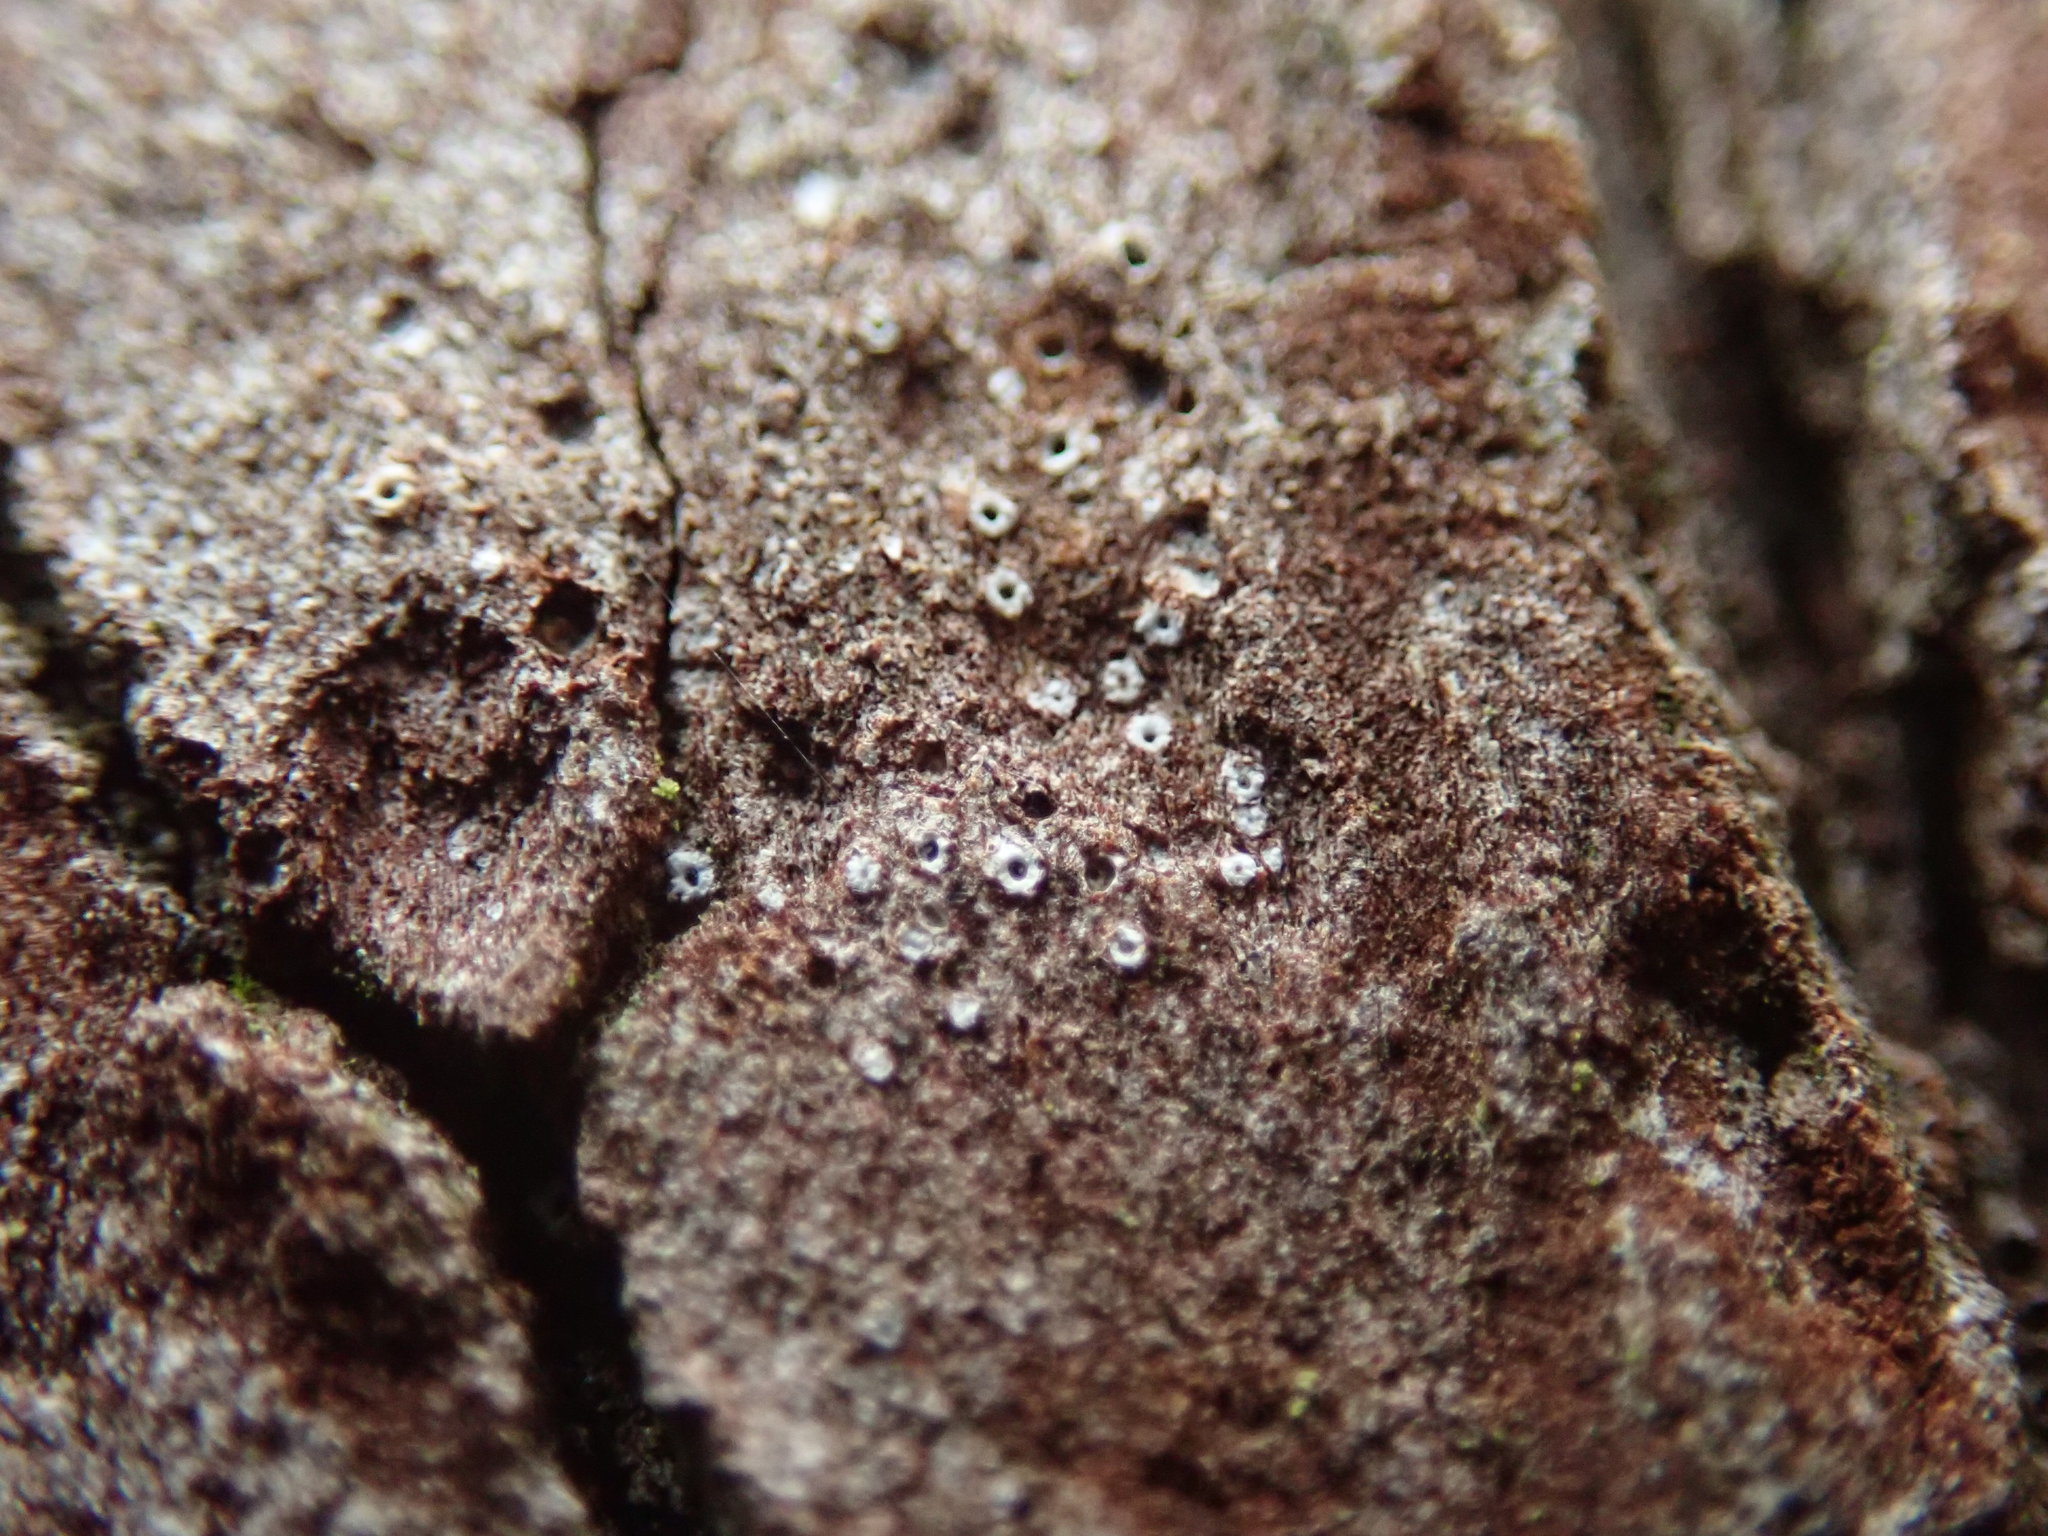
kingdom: Fungi
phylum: Ascomycota
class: Lecanoromycetes
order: Ostropales
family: Stictidaceae
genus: Stictis
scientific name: Stictis radiata
